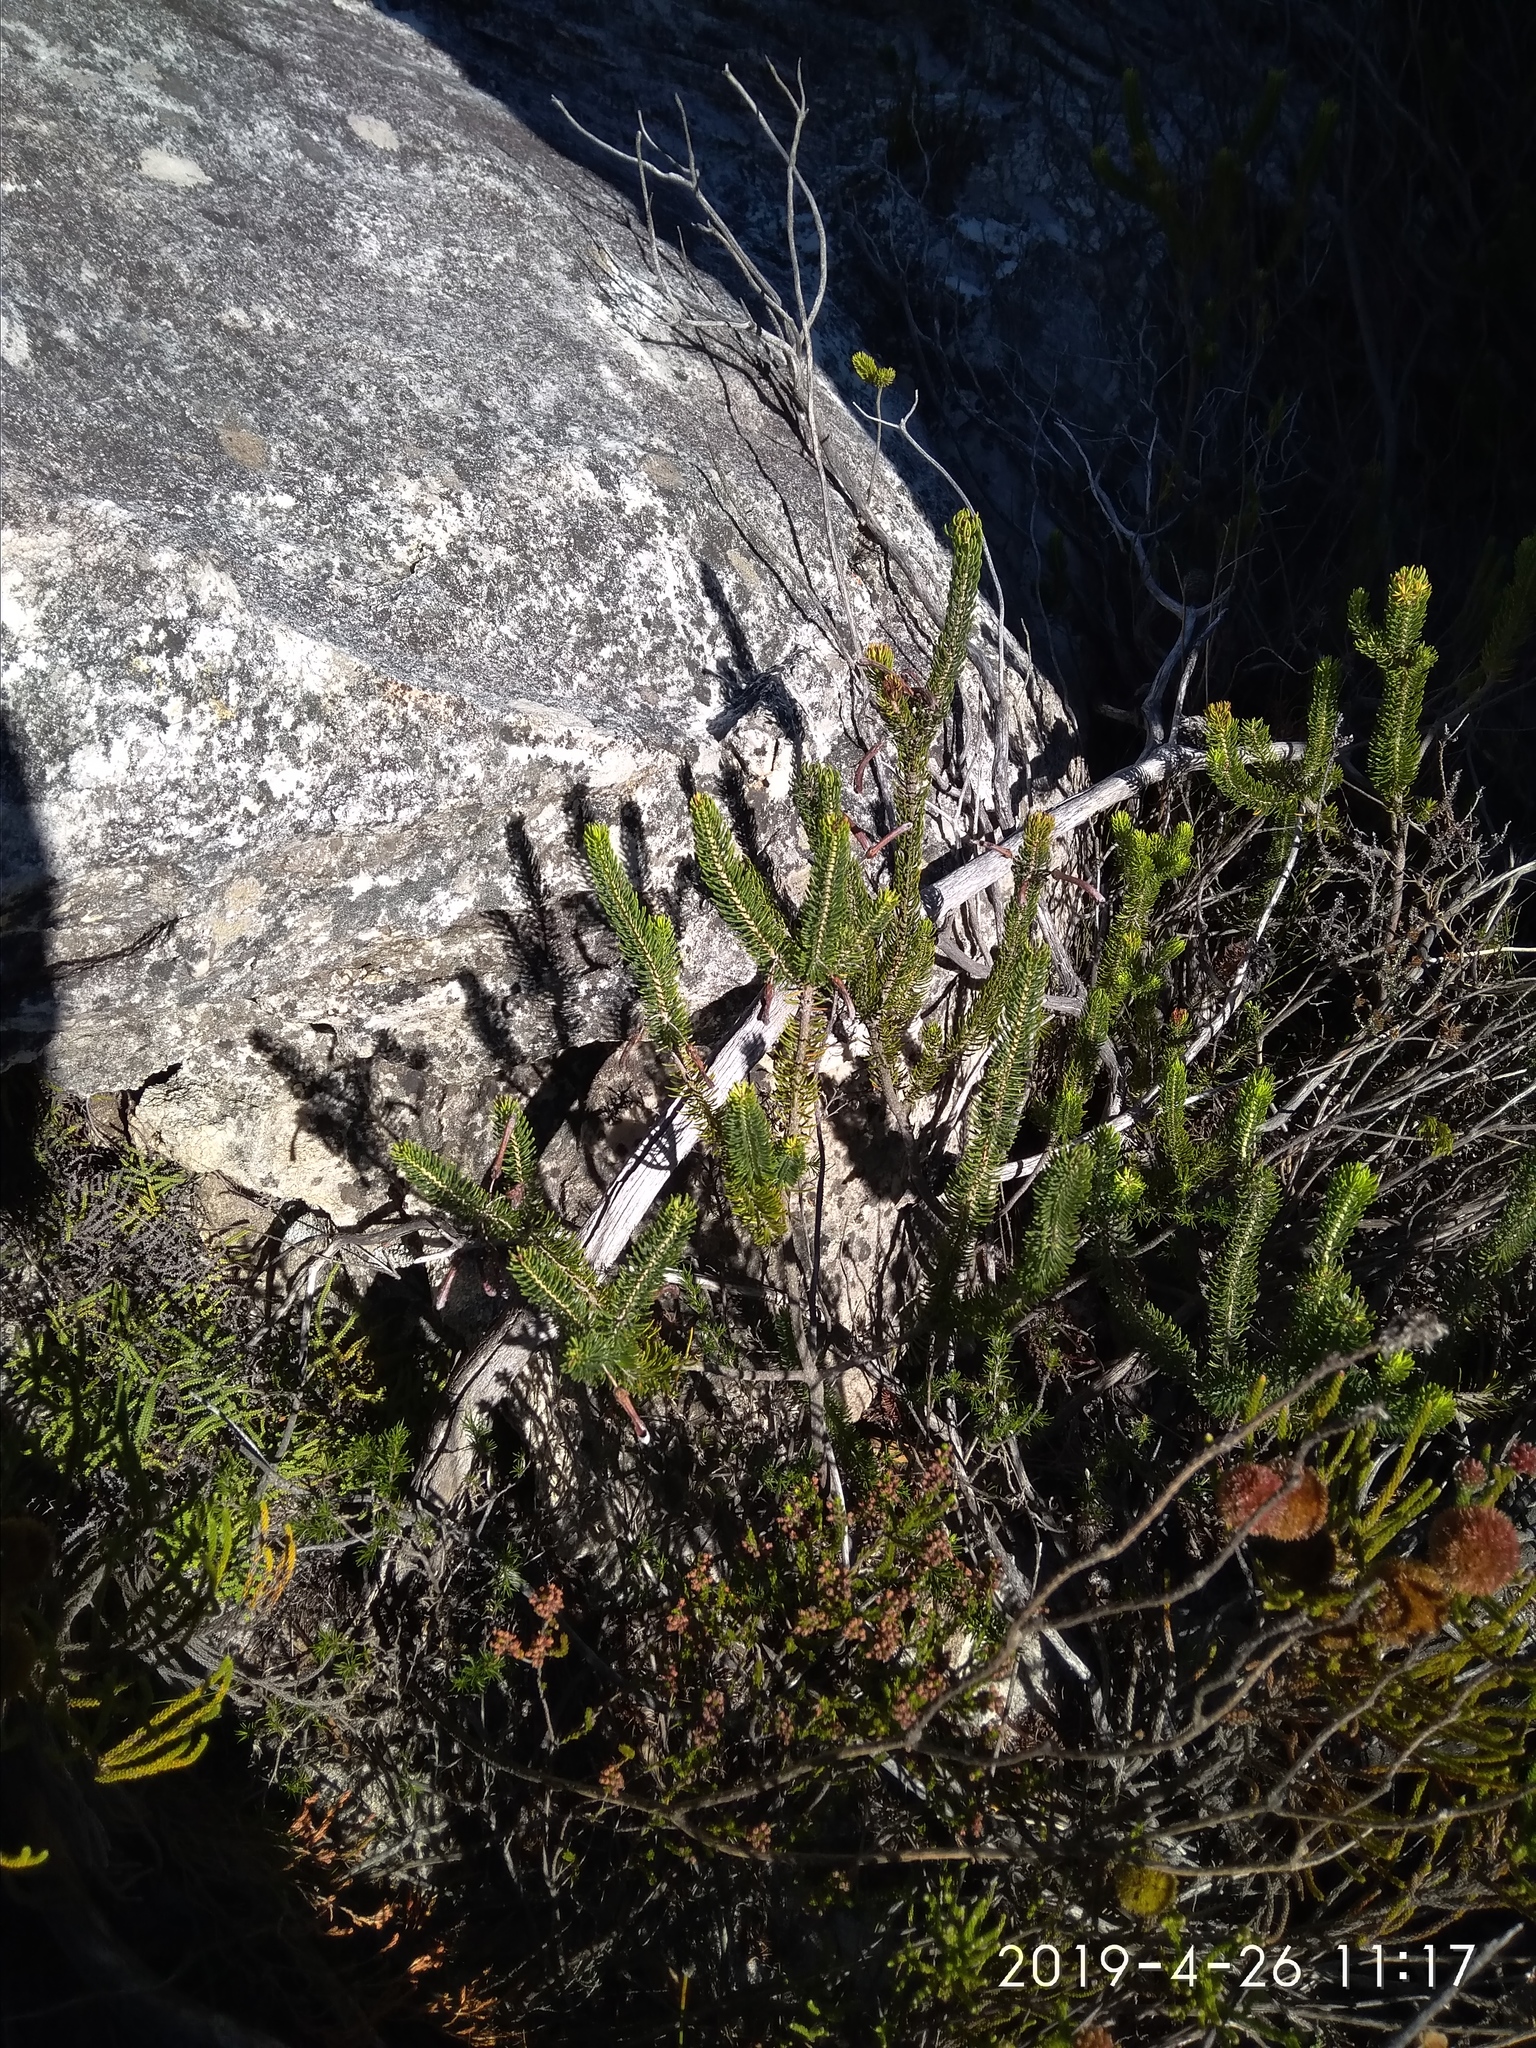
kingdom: Plantae
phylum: Tracheophyta
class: Magnoliopsida
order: Ericales
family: Ericaceae
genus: Erica
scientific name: Erica thomae
